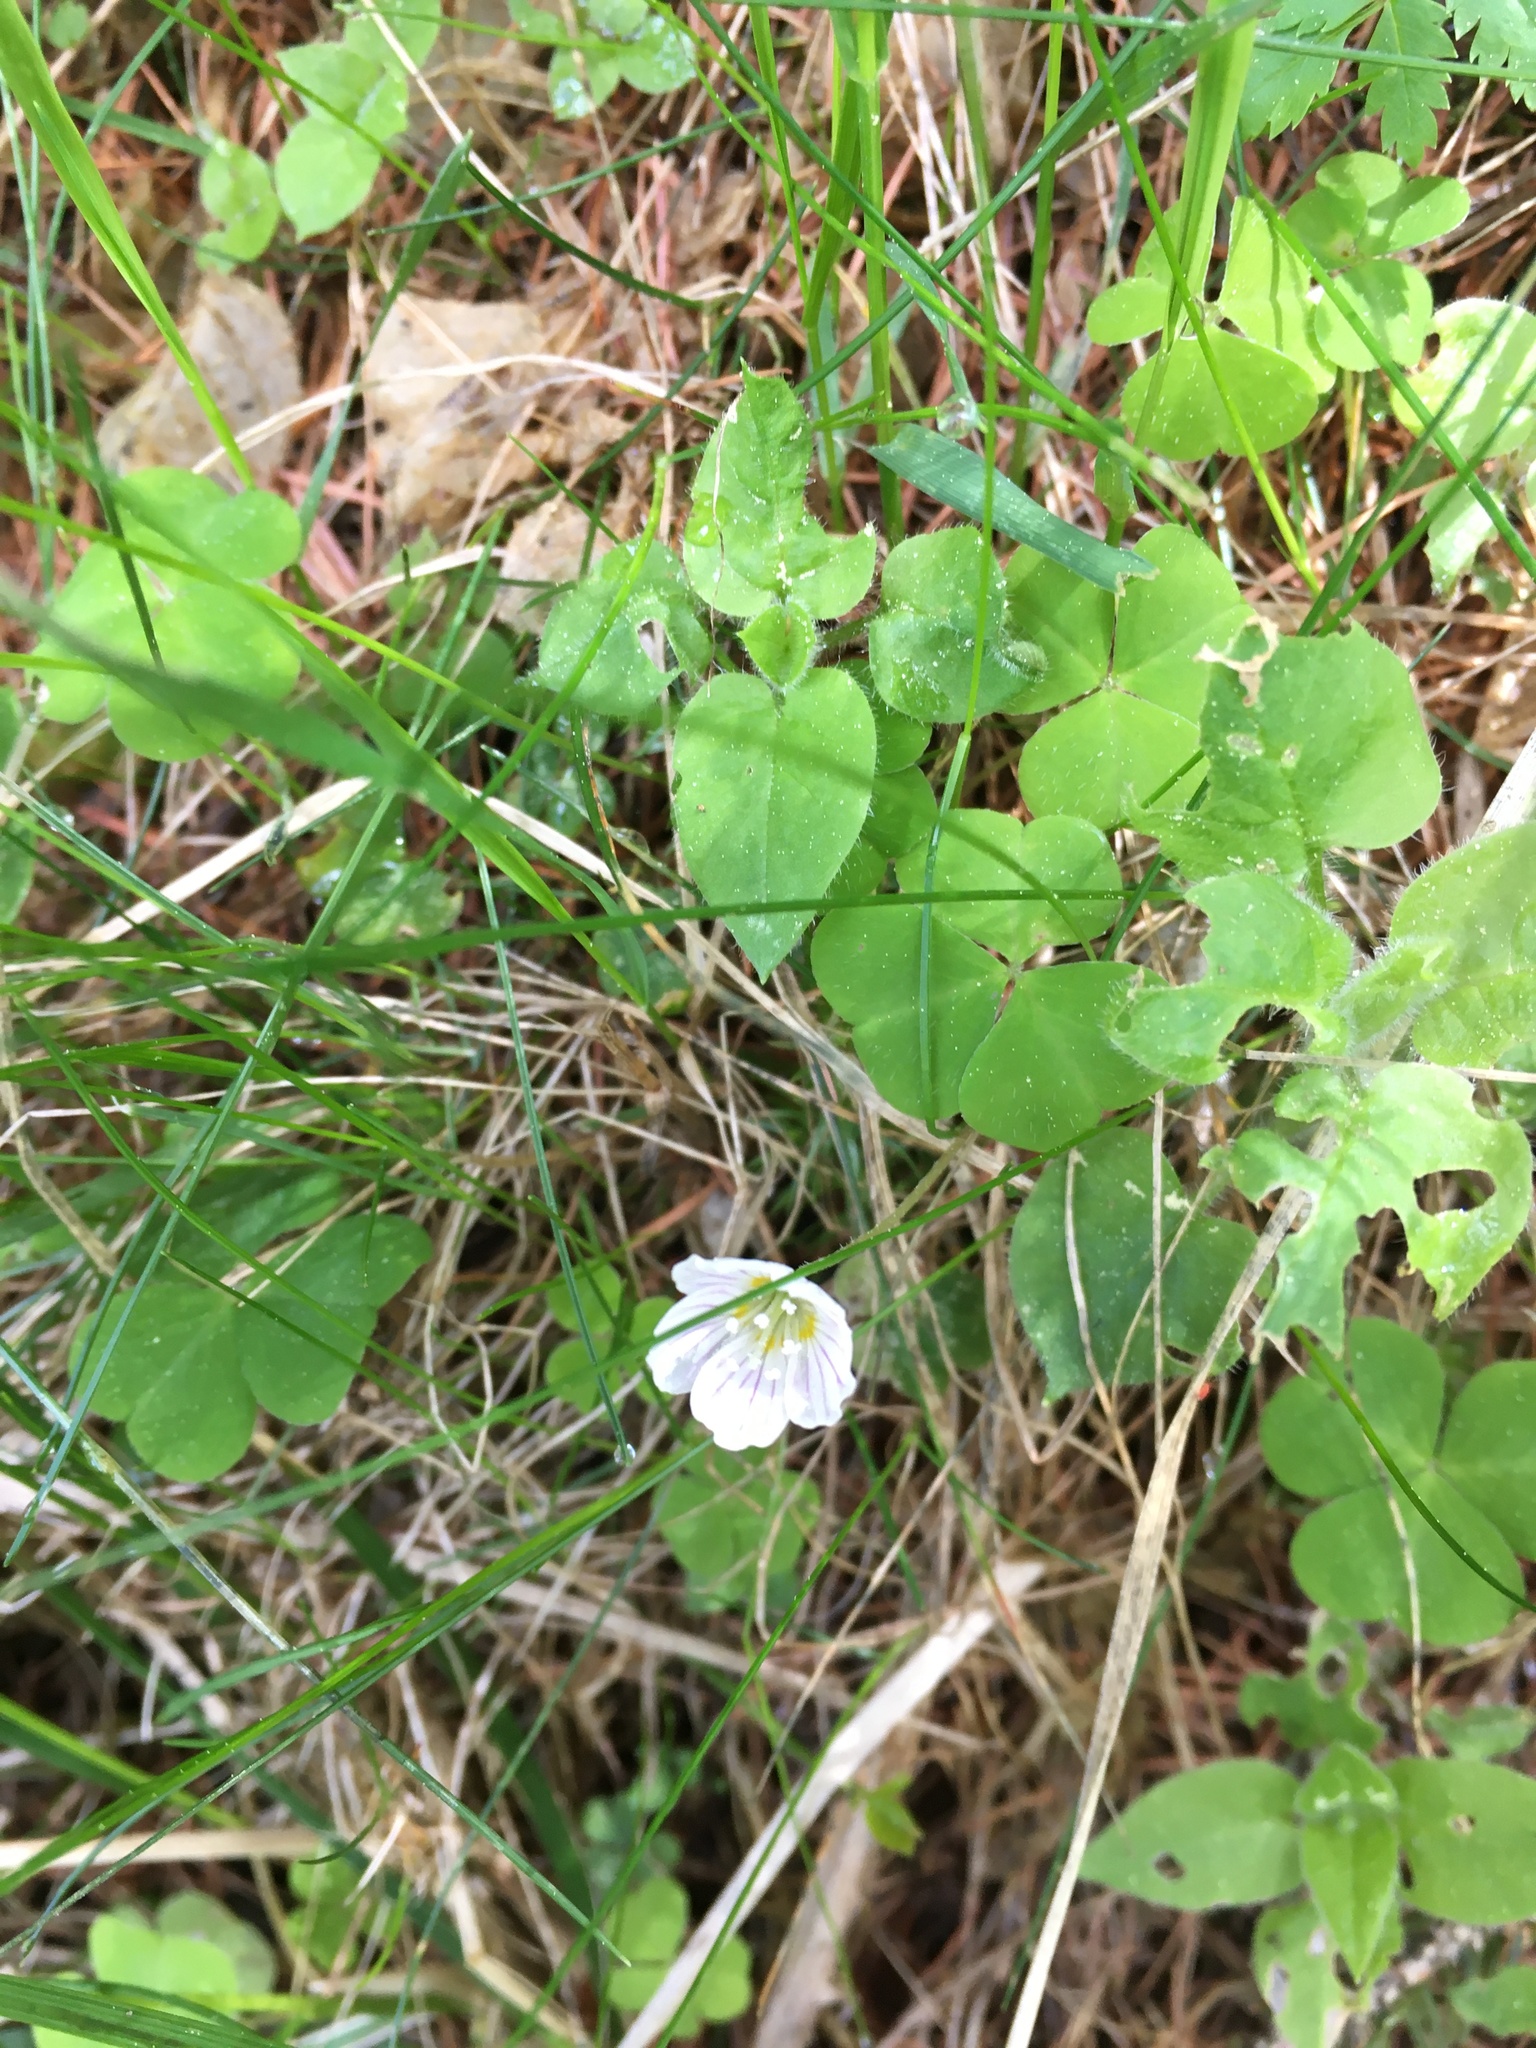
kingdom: Plantae
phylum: Tracheophyta
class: Magnoliopsida
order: Oxalidales
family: Oxalidaceae
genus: Oxalis
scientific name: Oxalis acetosella
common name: Wood-sorrel
